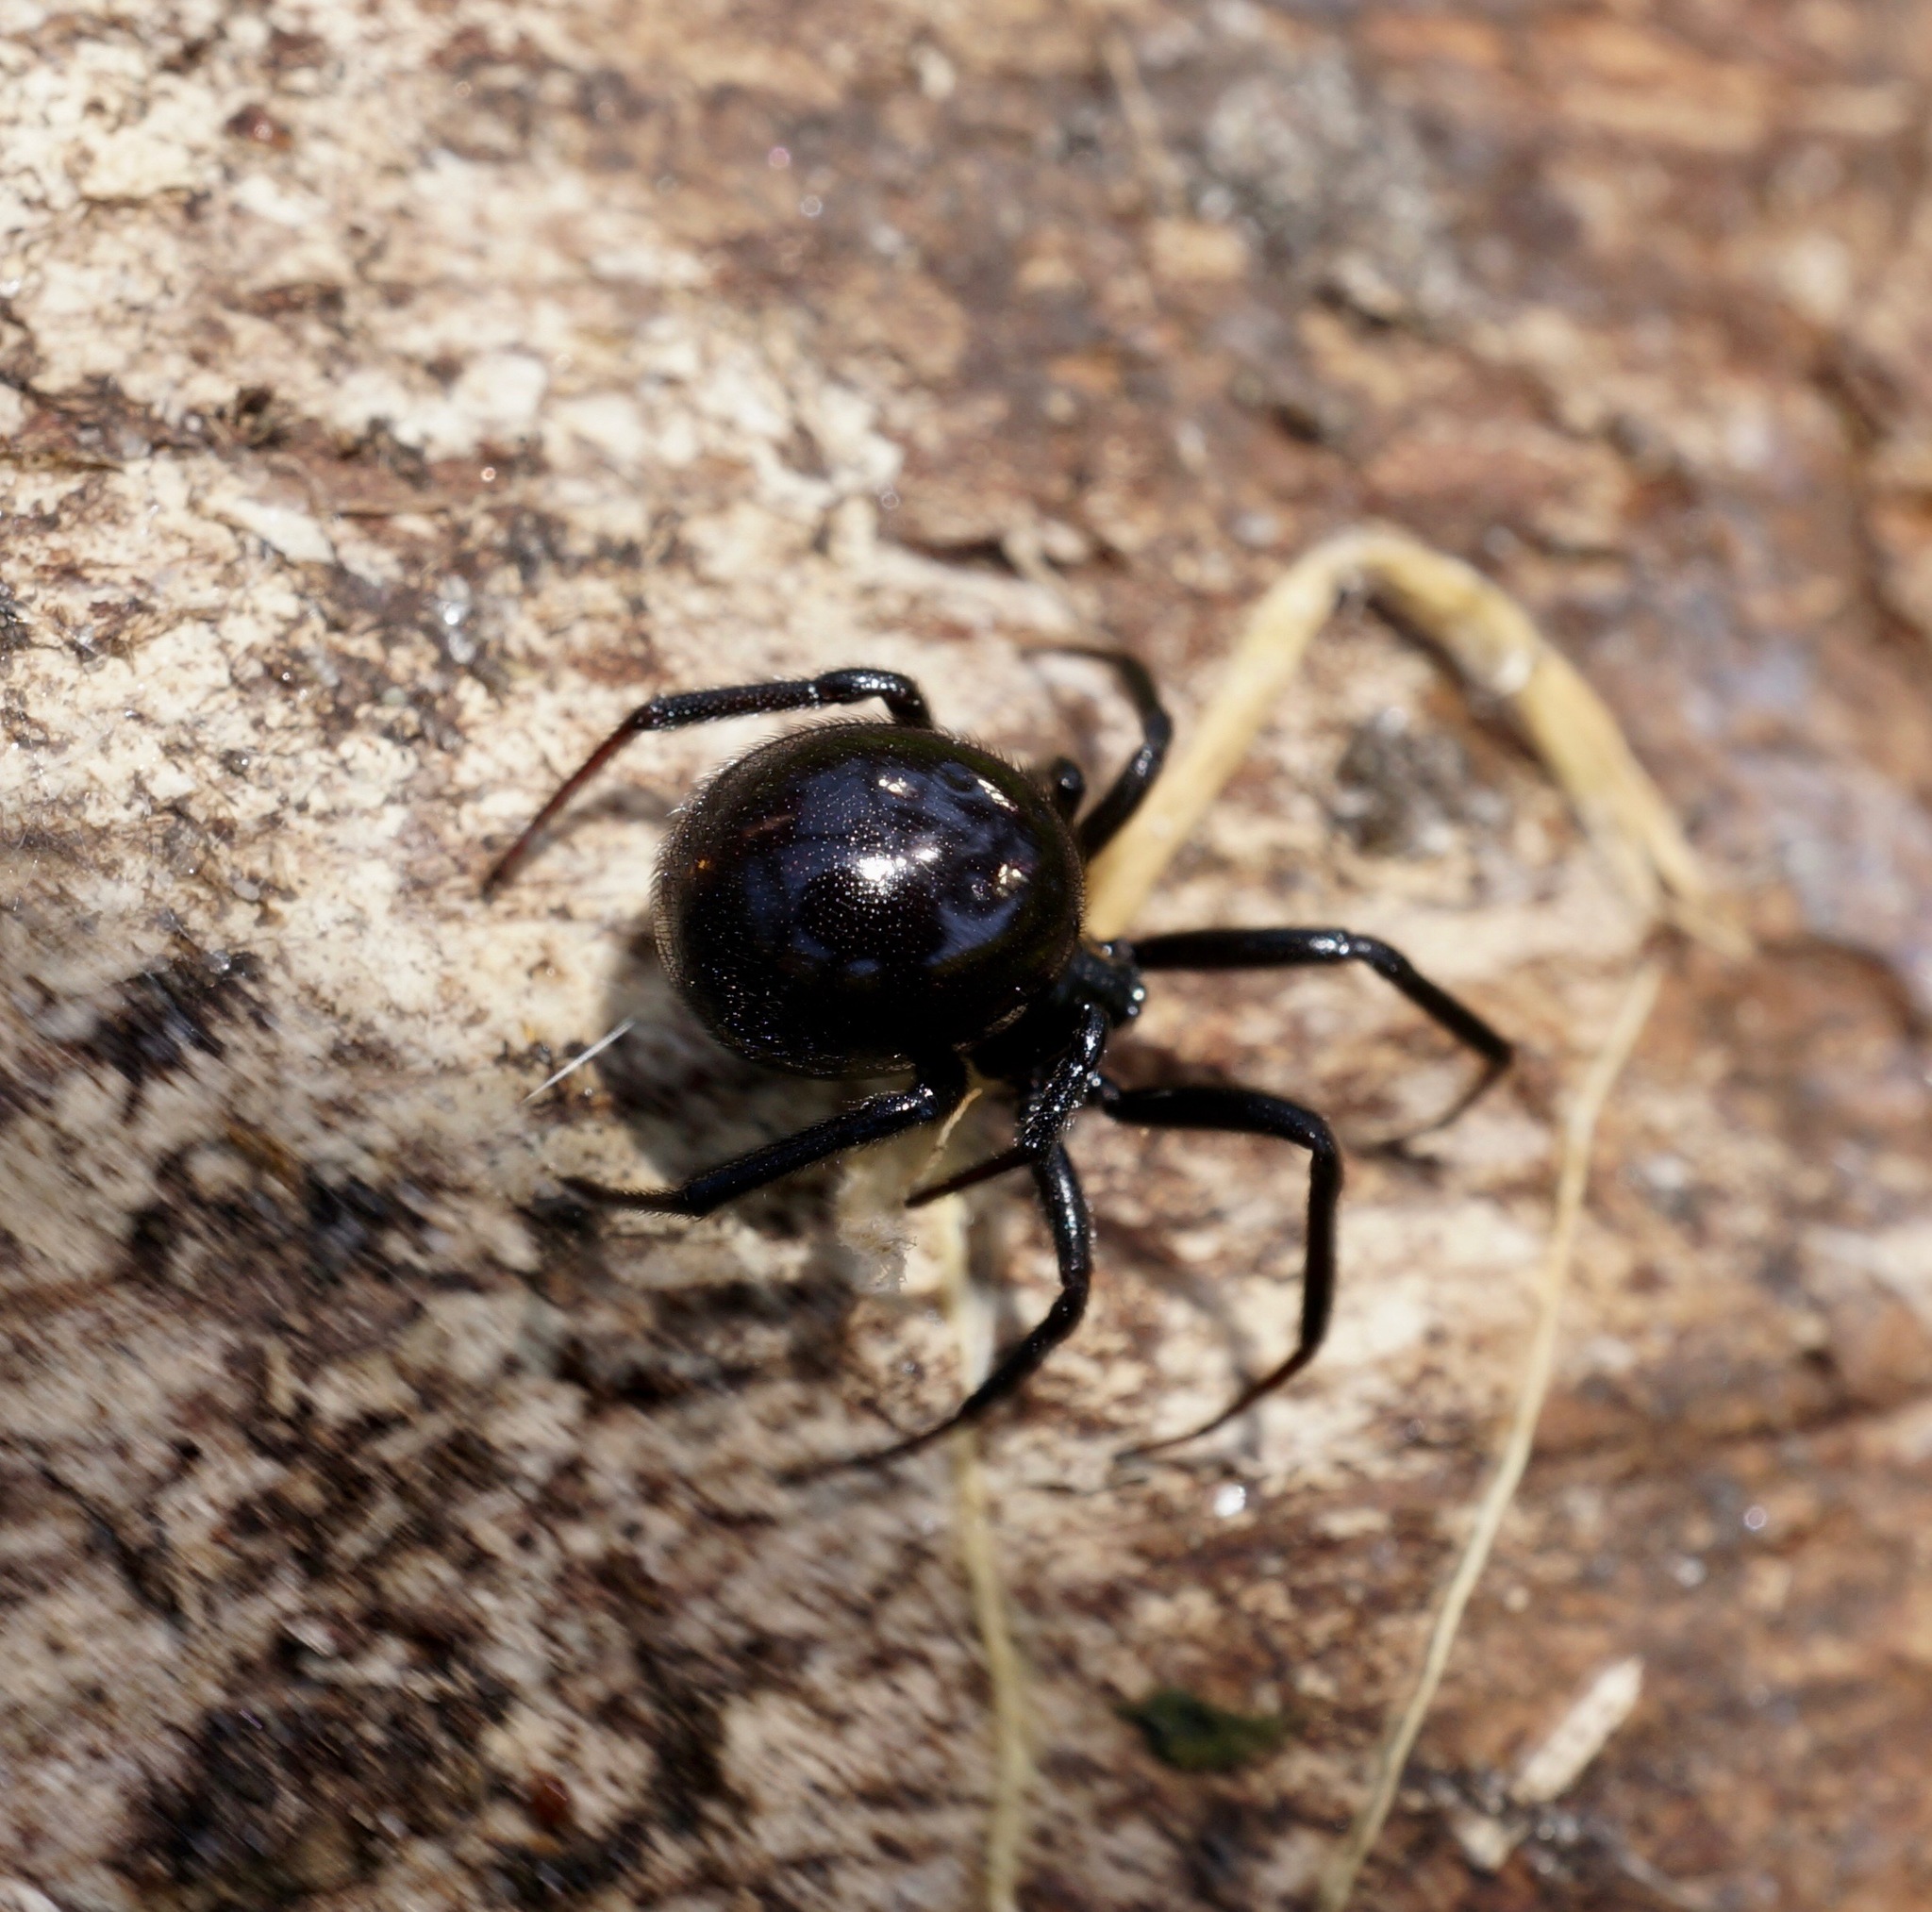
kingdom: Animalia
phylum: Arthropoda
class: Arachnida
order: Araneae
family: Theridiidae
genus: Steatoda
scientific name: Steatoda capensis
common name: Cobweb weaver
